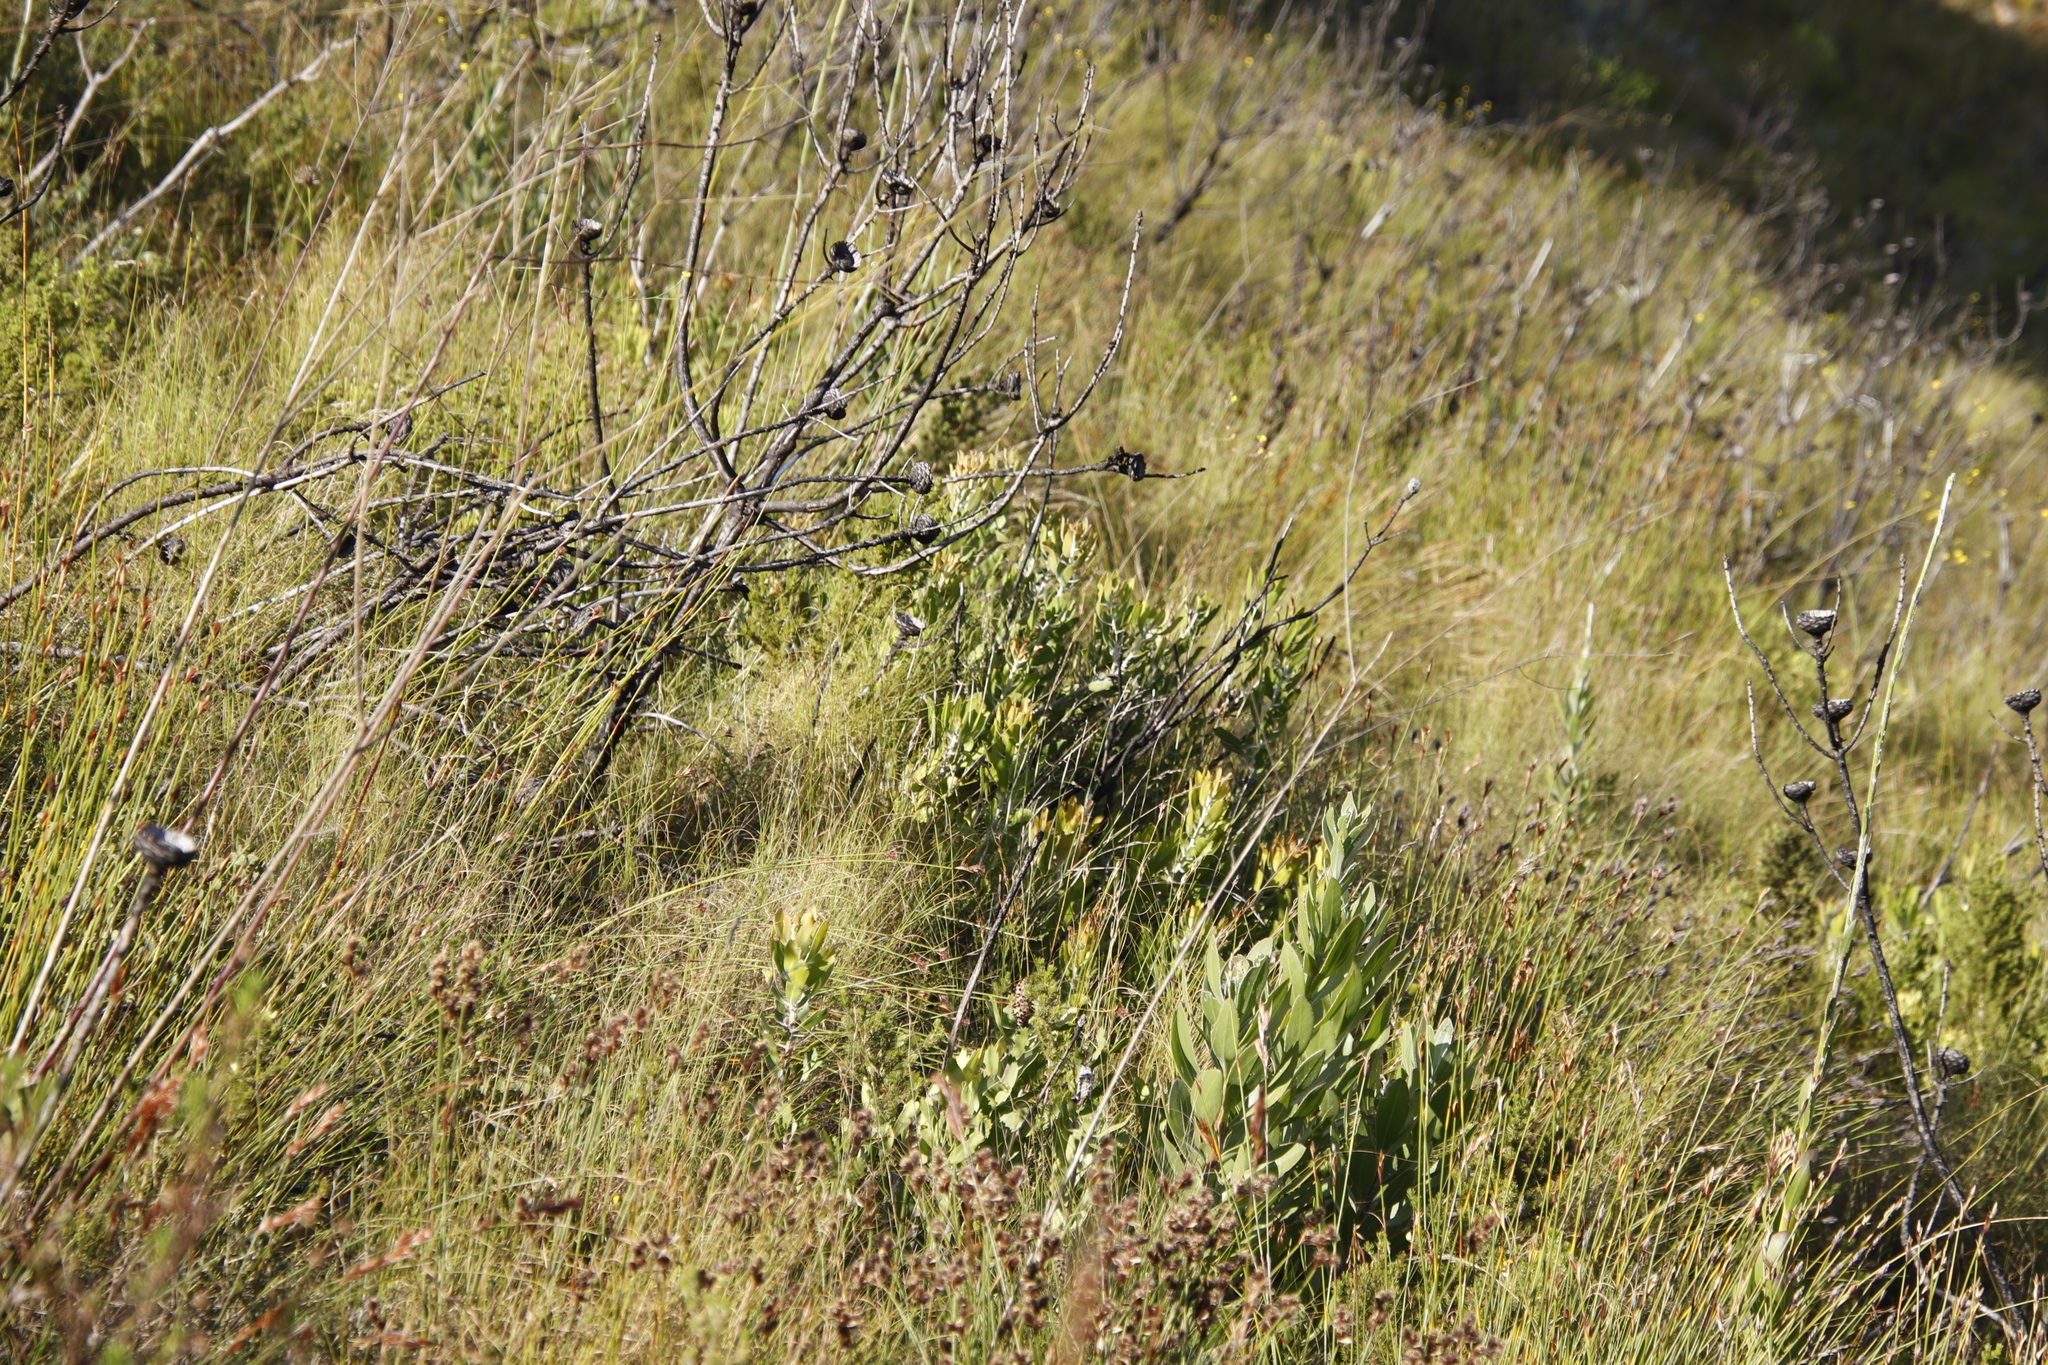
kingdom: Plantae
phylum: Tracheophyta
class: Magnoliopsida
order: Proteales
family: Proteaceae
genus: Leucospermum
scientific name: Leucospermum cuneiforme
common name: Common pincushion
